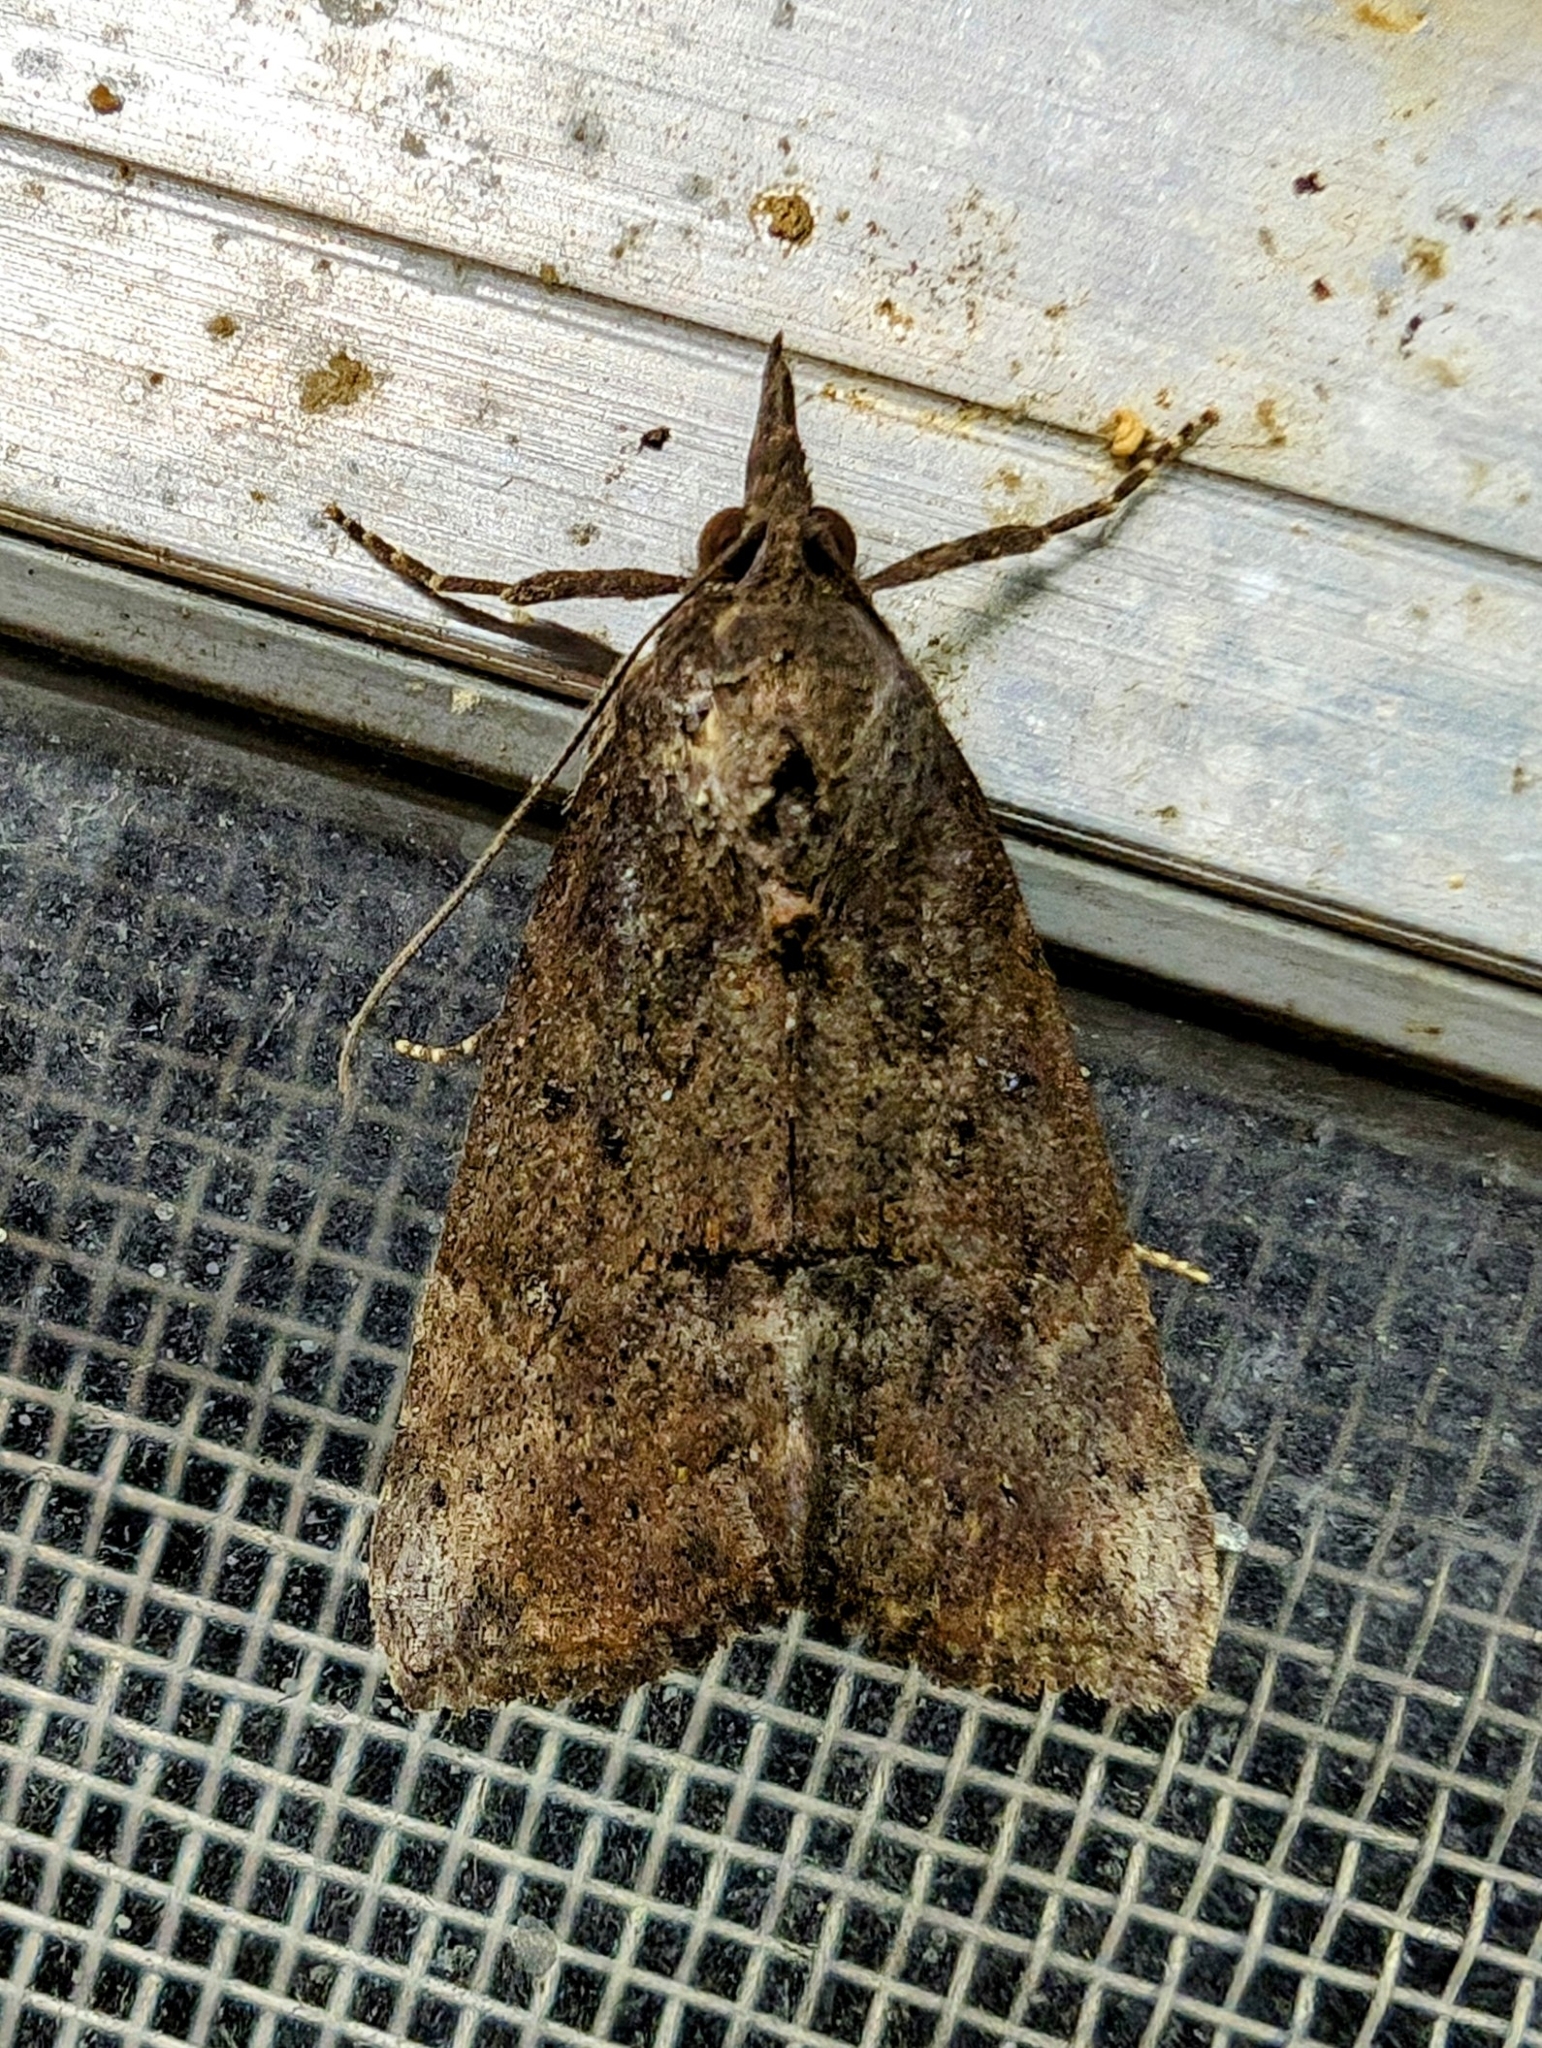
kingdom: Animalia
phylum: Arthropoda
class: Insecta
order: Lepidoptera
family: Erebidae
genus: Hypena
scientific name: Hypena scabra
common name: Green cloverworm
